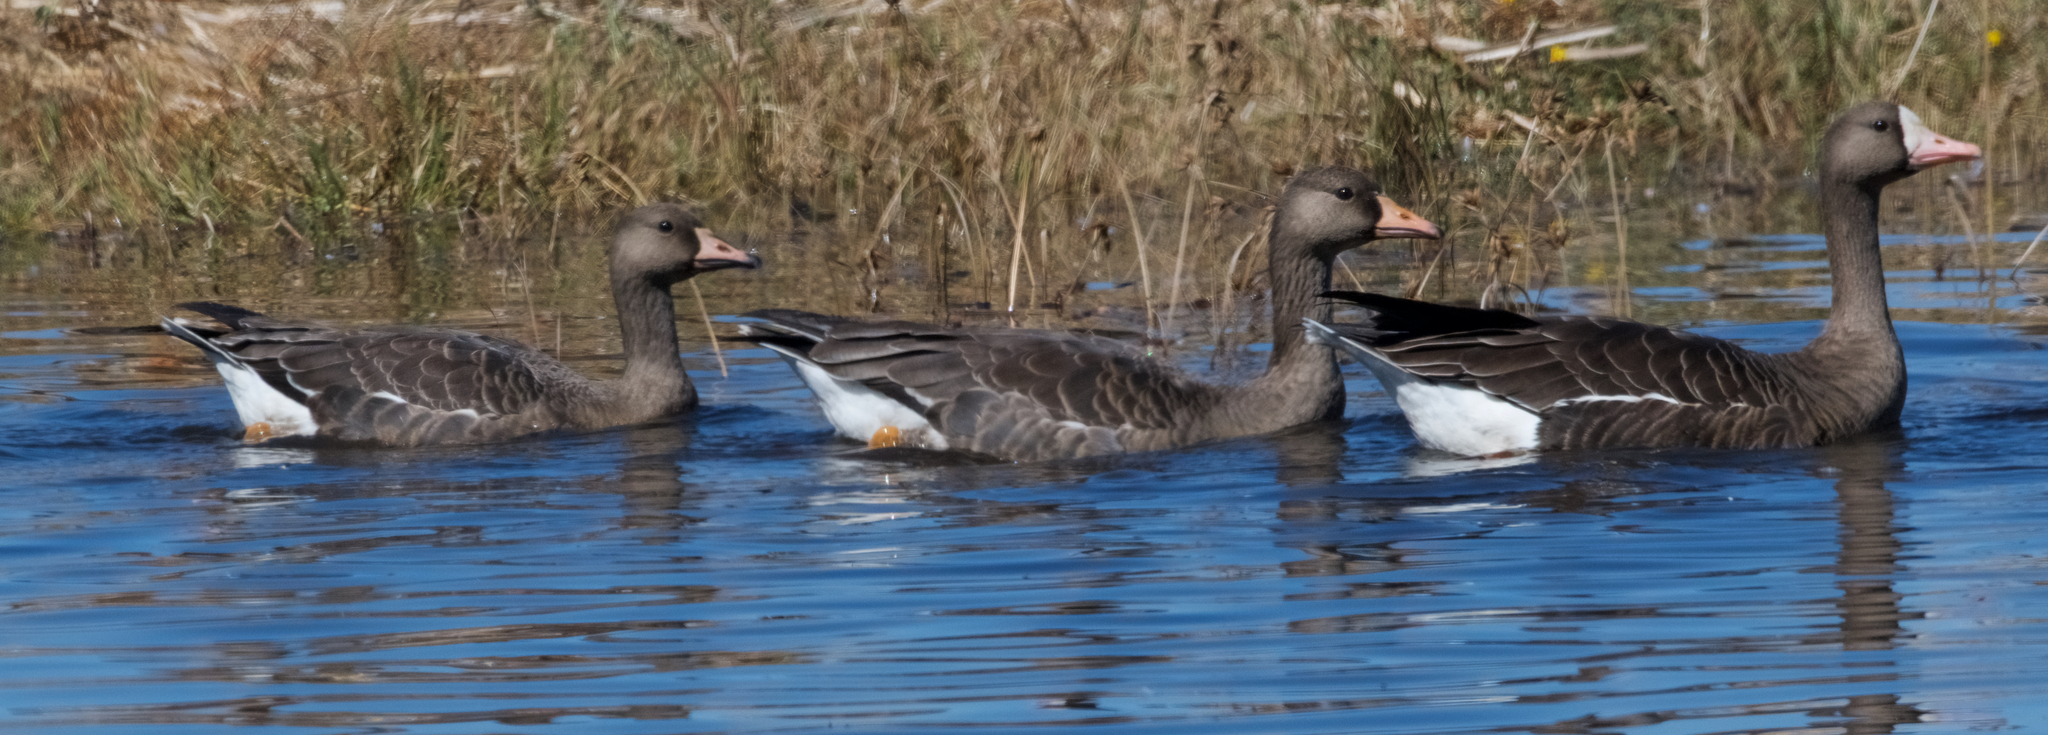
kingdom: Animalia
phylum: Chordata
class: Aves
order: Anseriformes
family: Anatidae
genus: Anser
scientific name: Anser albifrons
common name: Greater white-fronted goose
